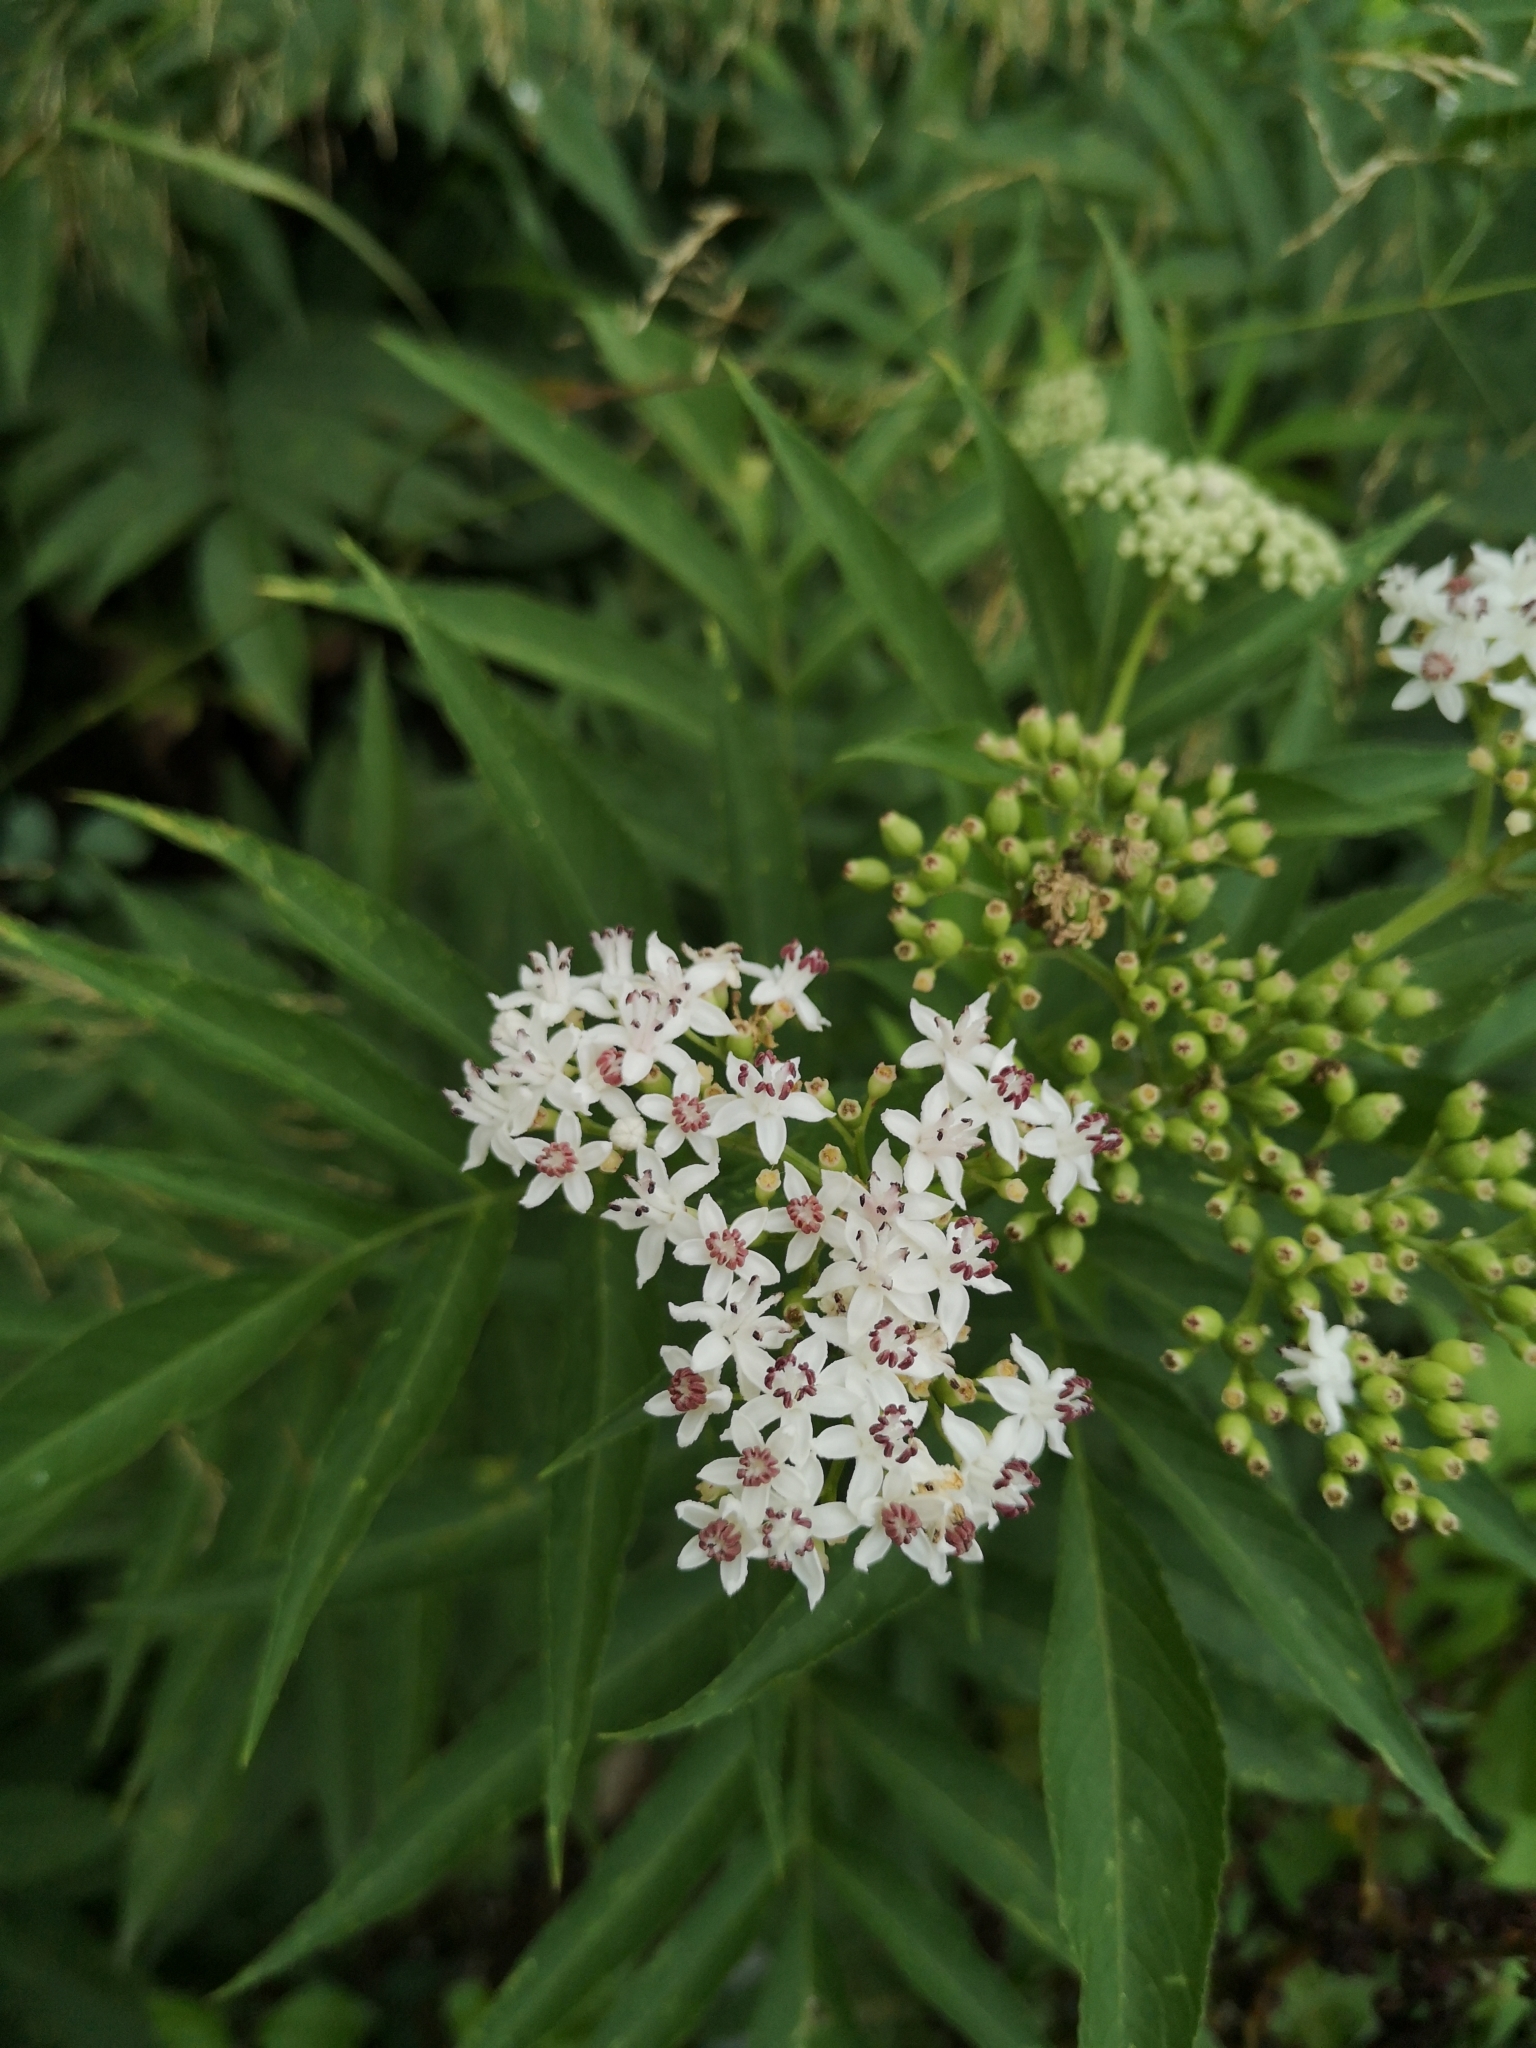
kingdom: Plantae
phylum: Tracheophyta
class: Magnoliopsida
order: Dipsacales
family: Viburnaceae
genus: Sambucus
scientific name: Sambucus ebulus
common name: Dwarf elder
